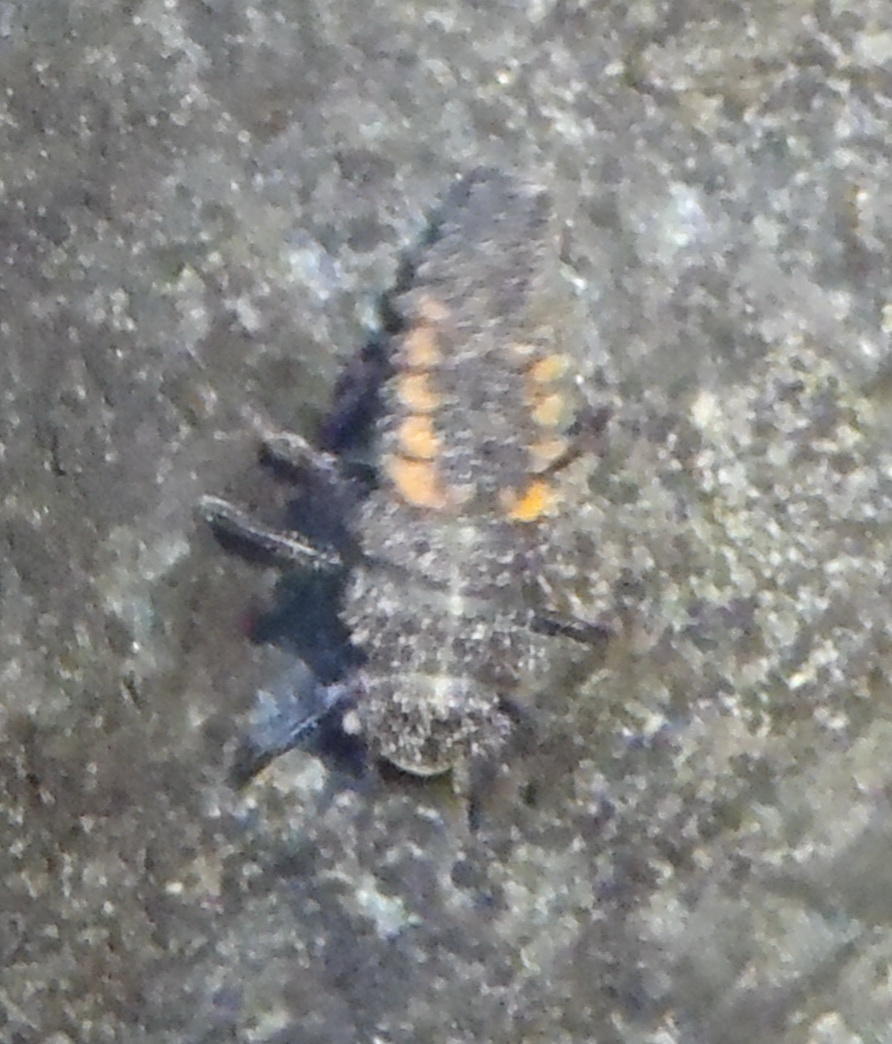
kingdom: Animalia
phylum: Arthropoda
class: Insecta
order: Coleoptera
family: Coccinellidae
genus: Harmonia
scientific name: Harmonia axyridis
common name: Harlequin ladybird
